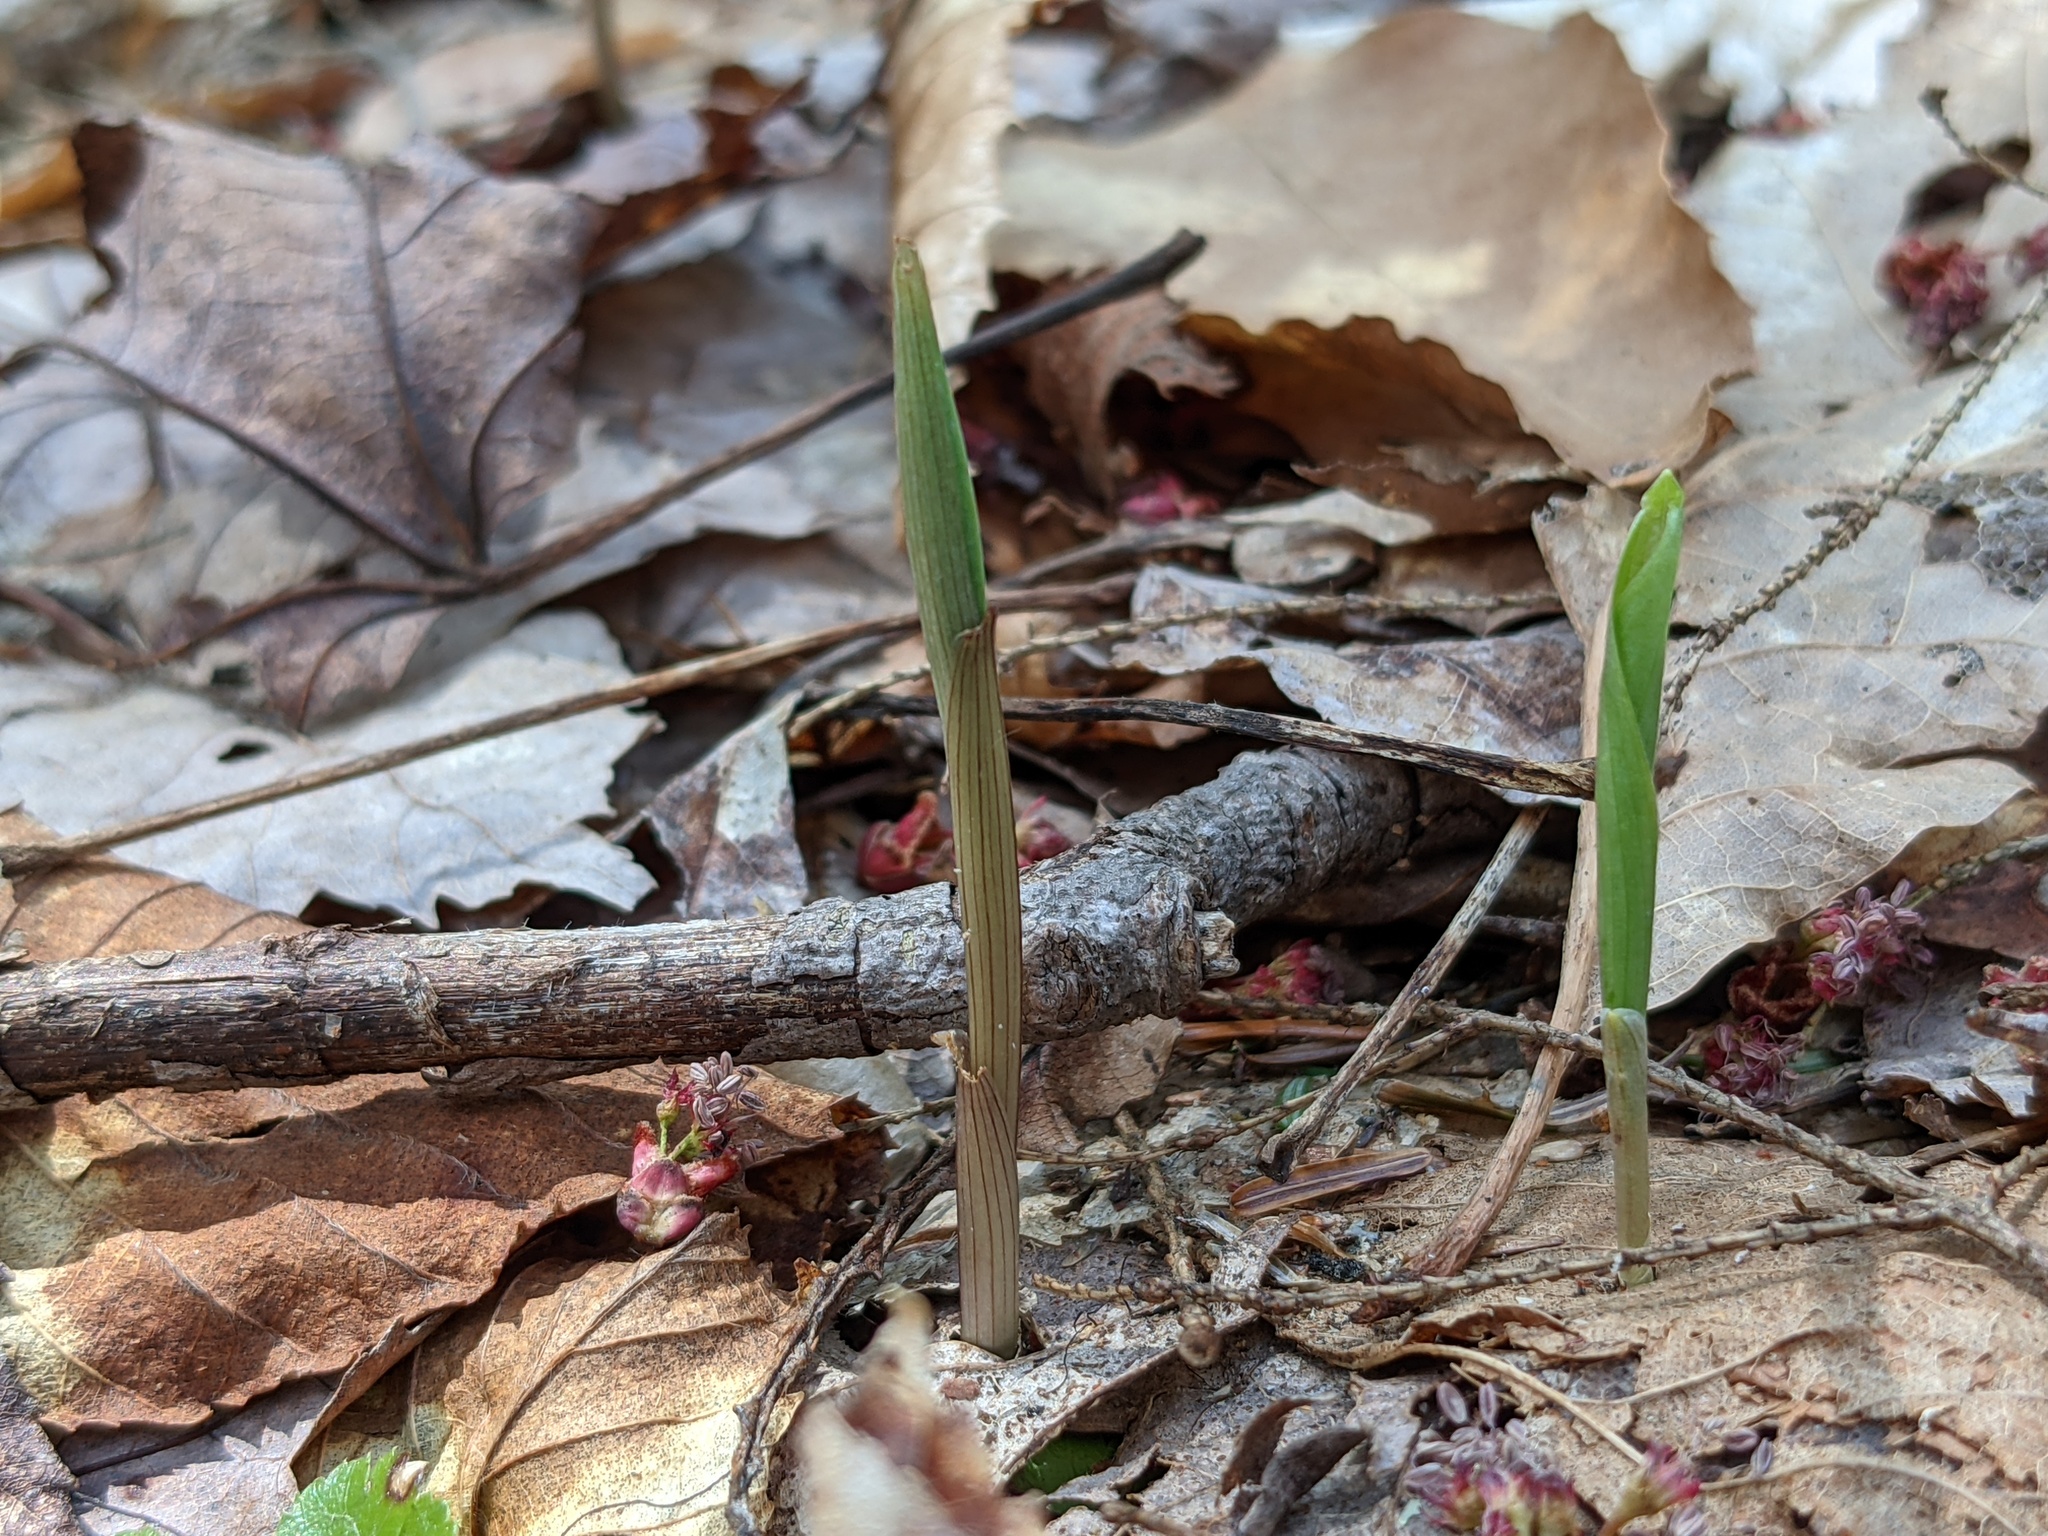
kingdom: Plantae
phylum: Tracheophyta
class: Liliopsida
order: Liliales
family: Colchicaceae
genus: Uvularia
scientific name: Uvularia sessilifolia
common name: Straw-lily
